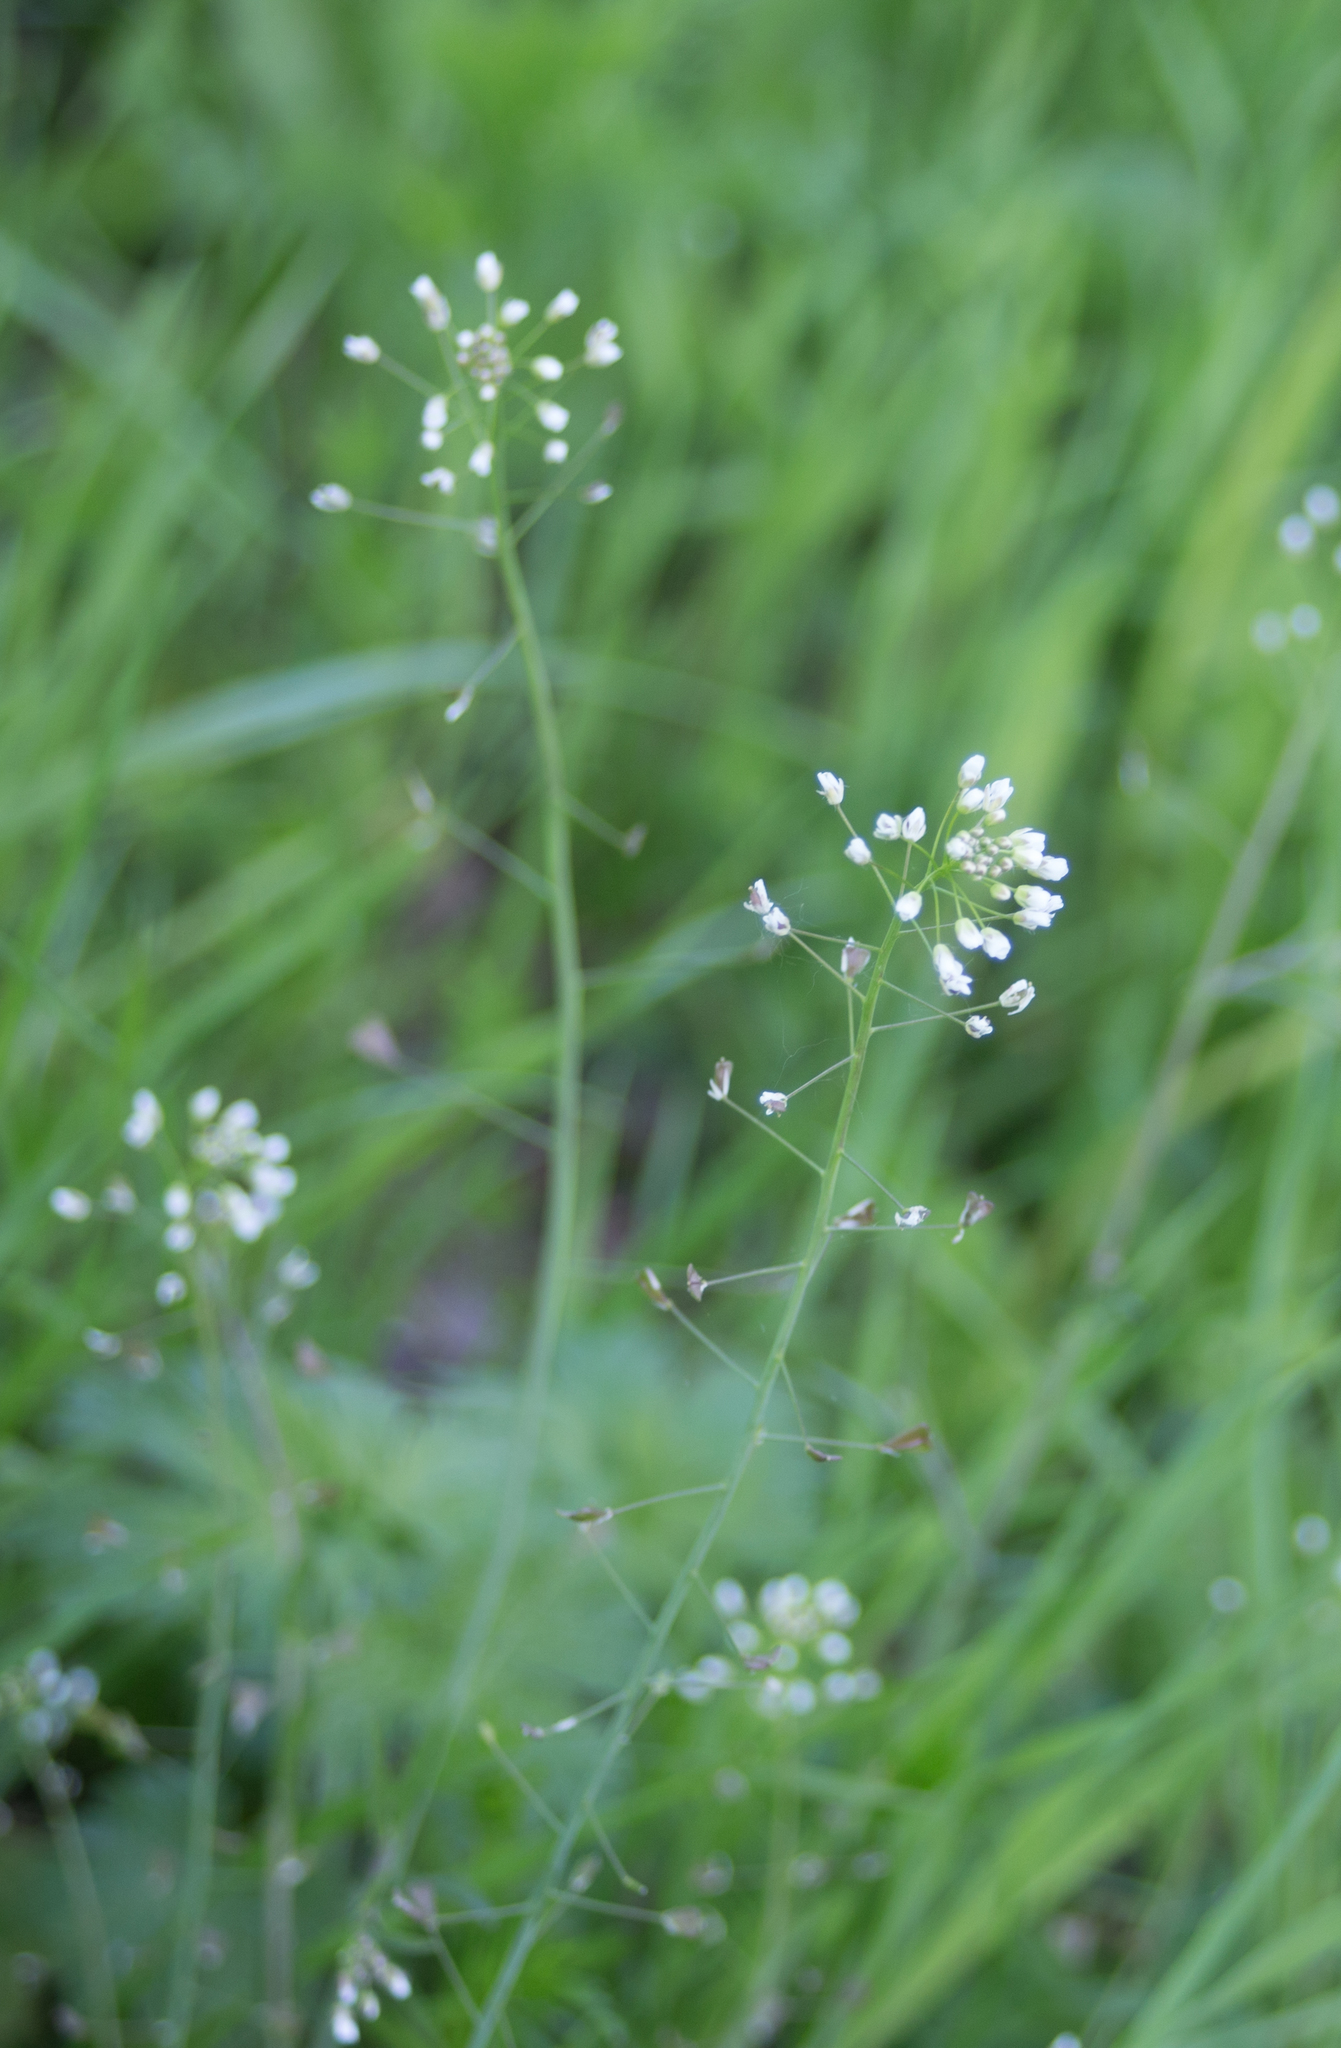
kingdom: Plantae
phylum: Tracheophyta
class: Magnoliopsida
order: Brassicales
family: Brassicaceae
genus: Capsella
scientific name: Capsella bursa-pastoris
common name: Shepherd's purse
